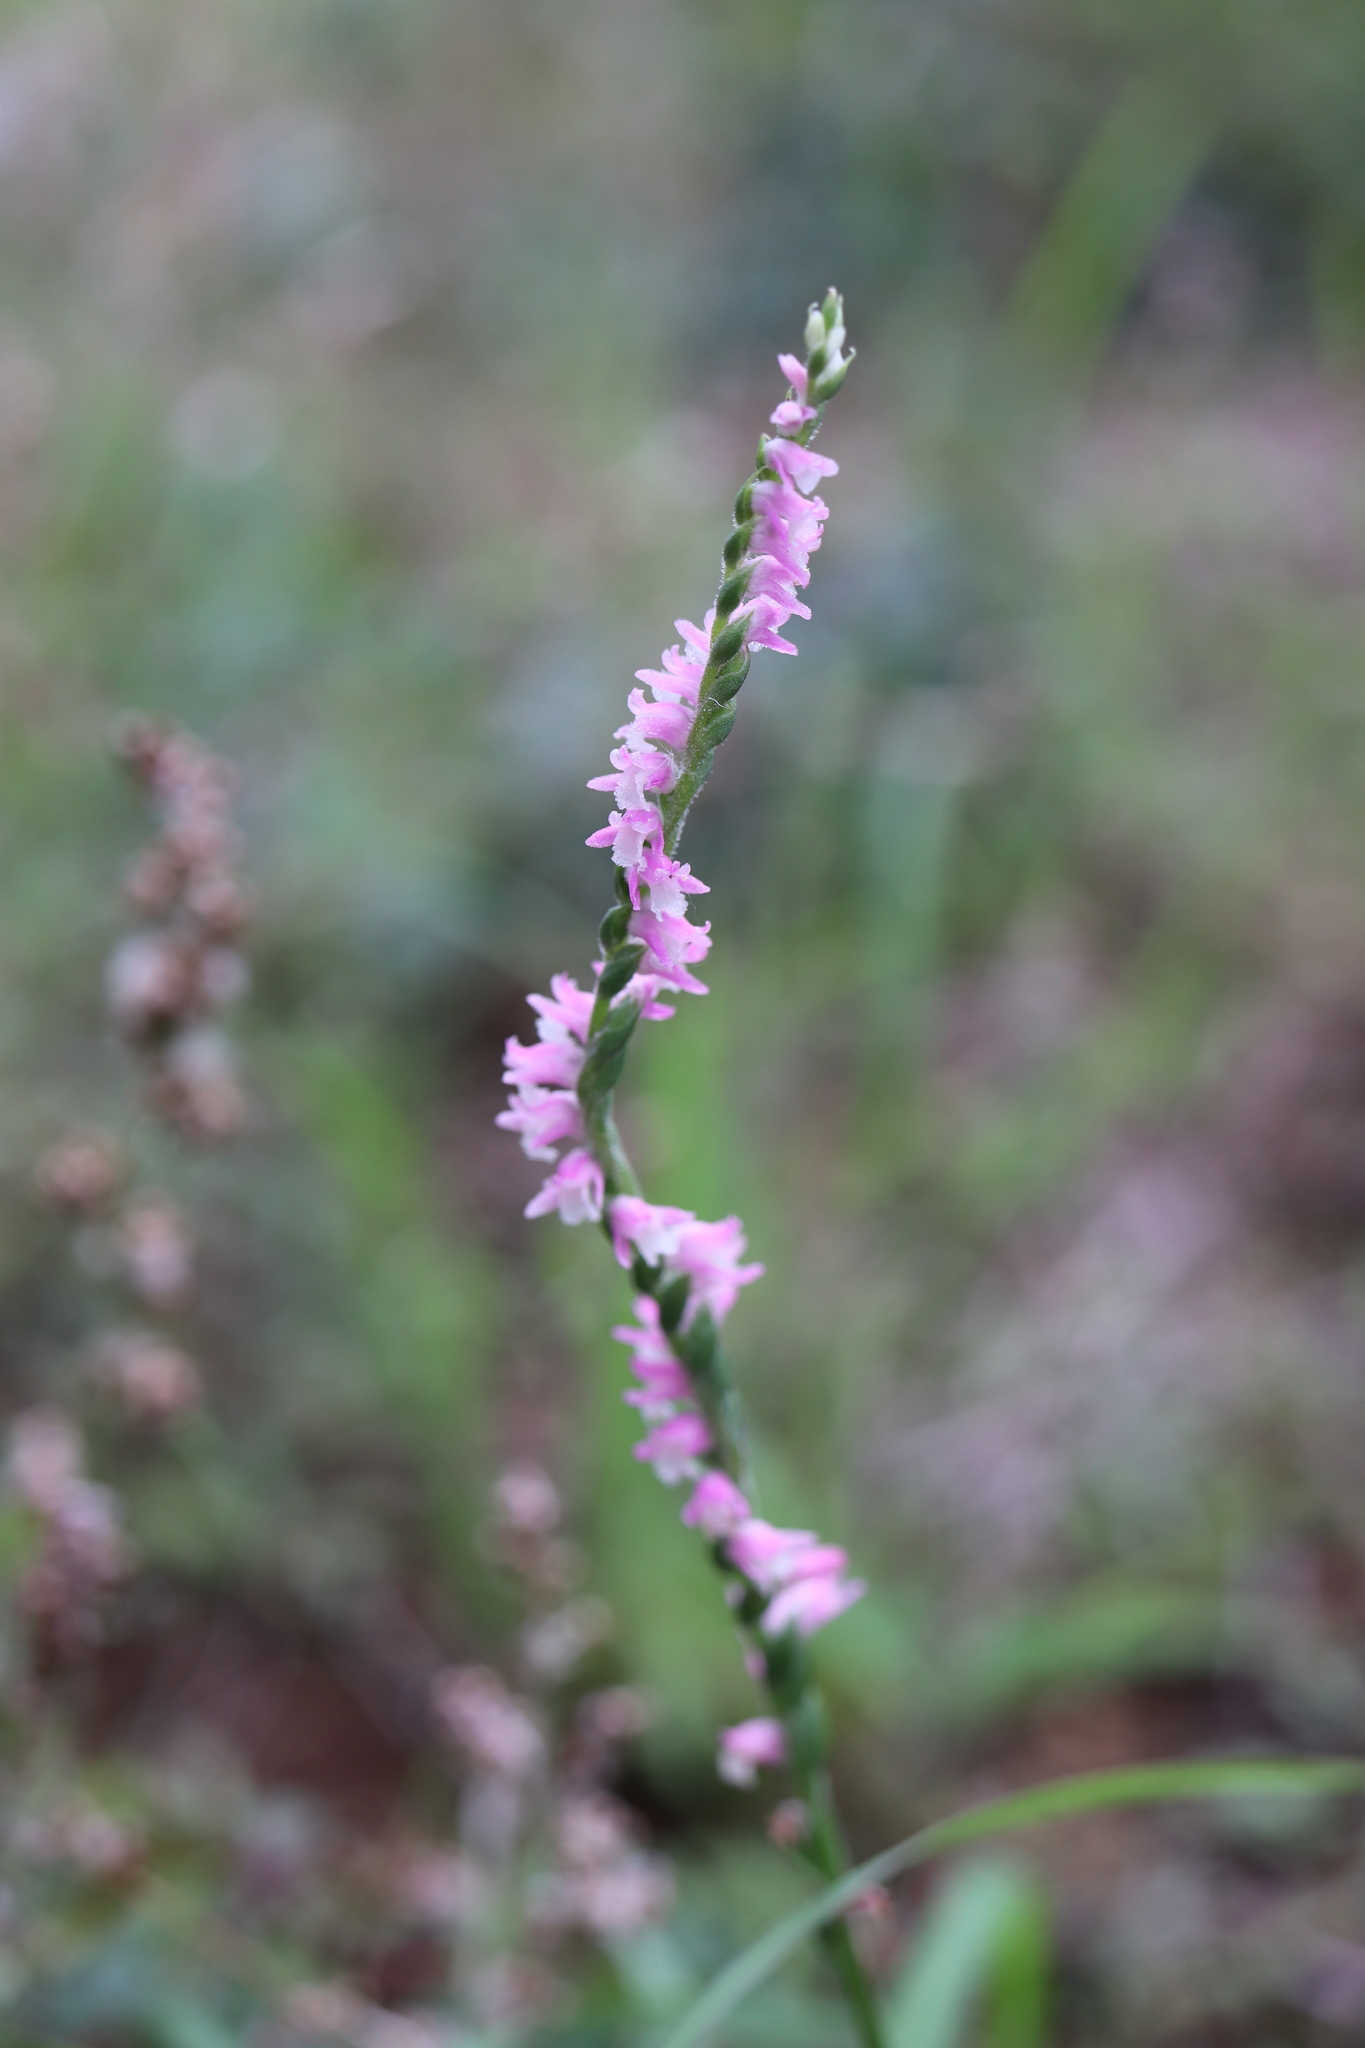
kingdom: Plantae
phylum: Tracheophyta
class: Liliopsida
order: Asparagales
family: Orchidaceae
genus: Spiranthes
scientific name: Spiranthes australis
